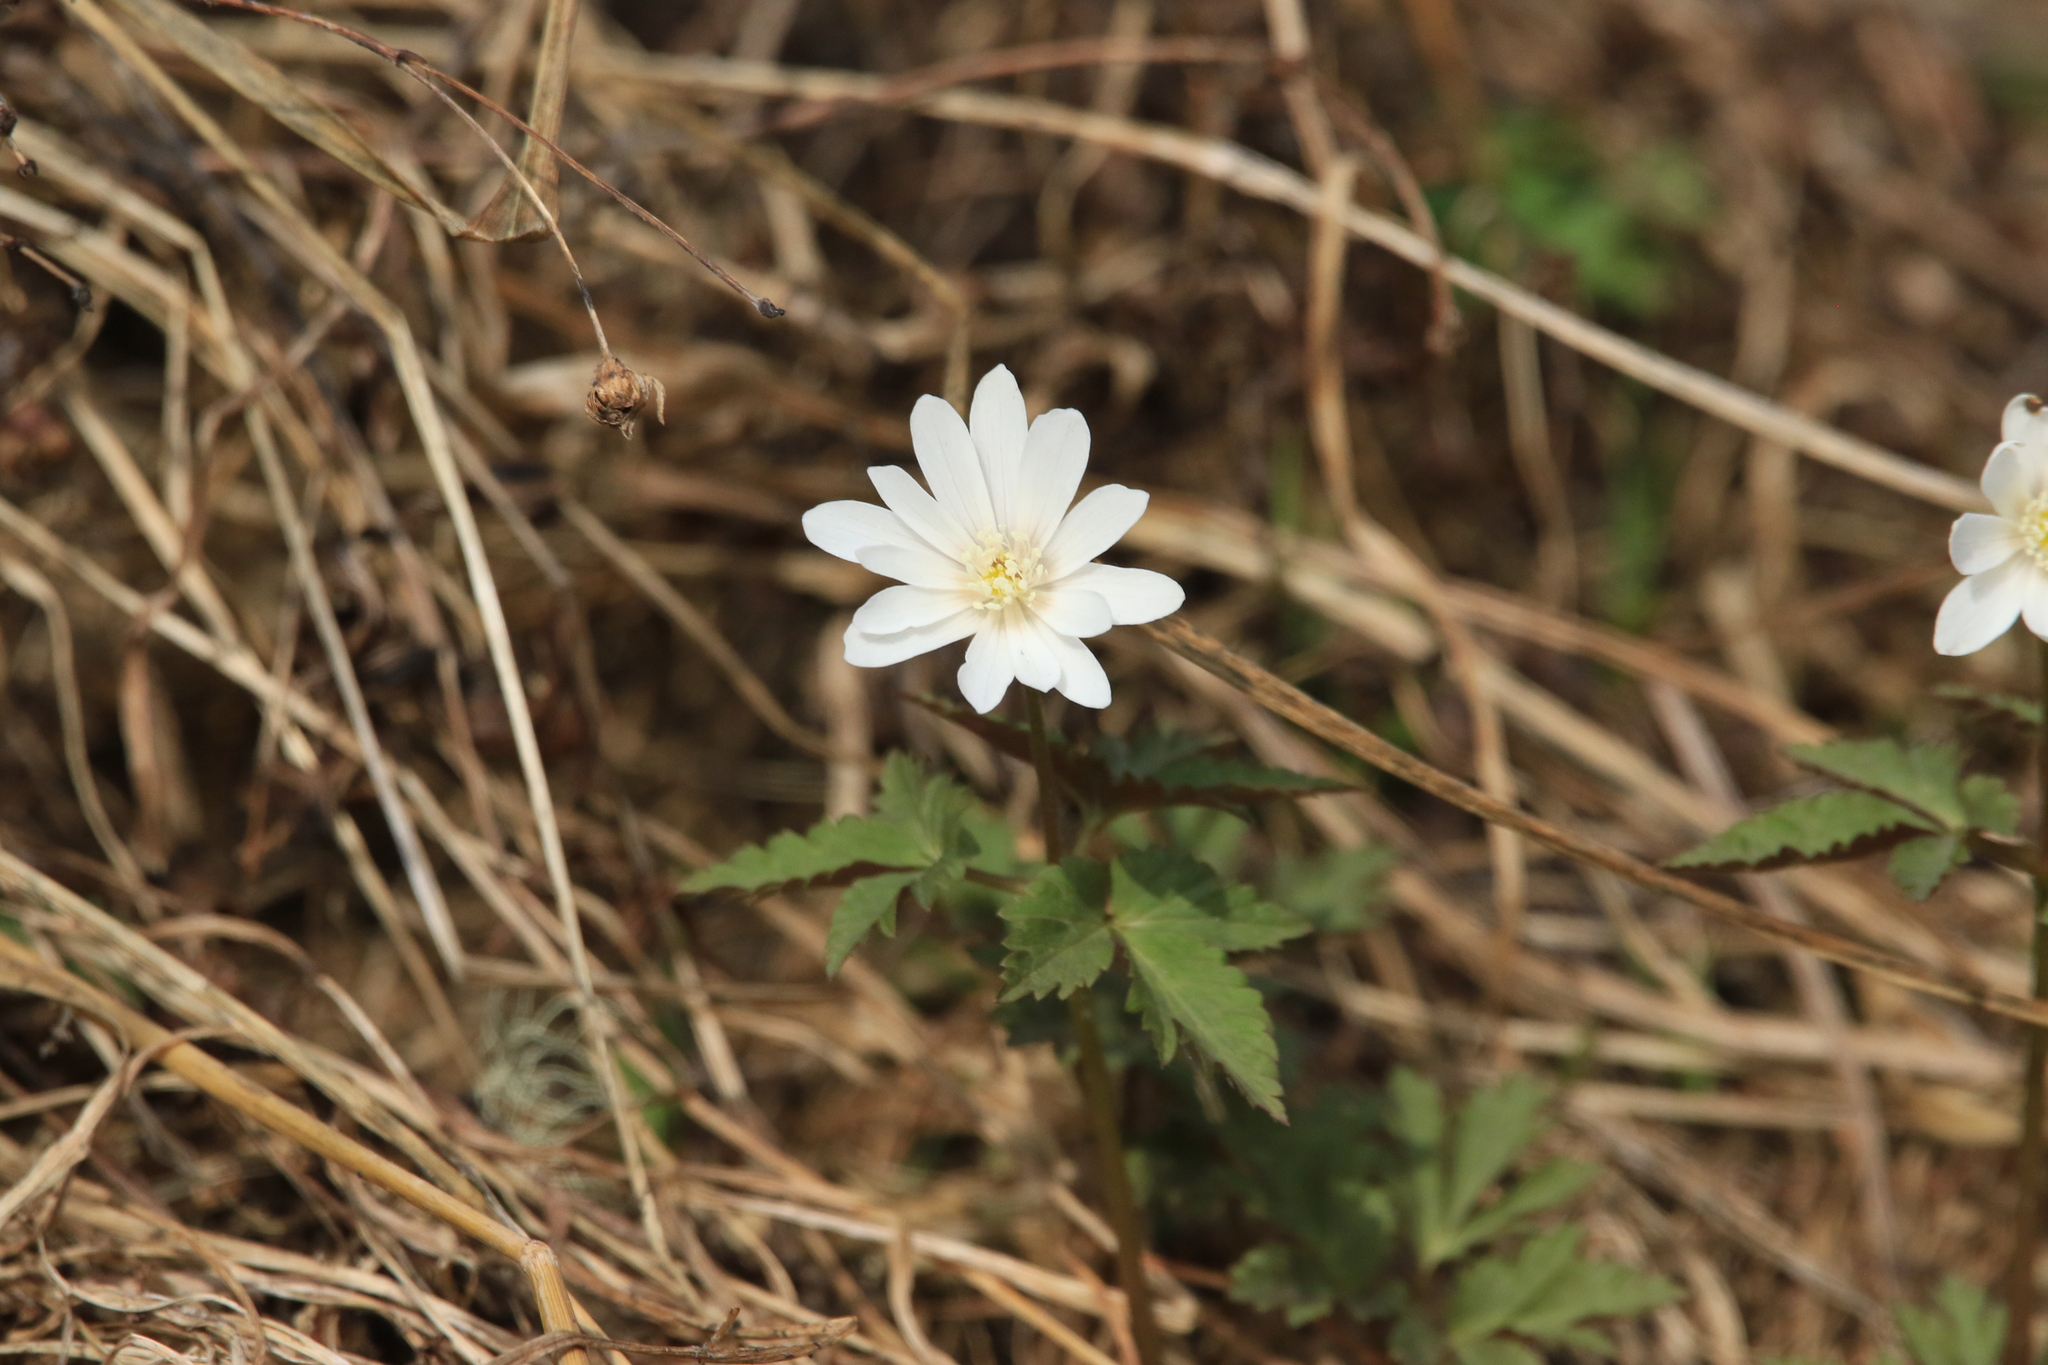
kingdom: Plantae
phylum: Tracheophyta
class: Magnoliopsida
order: Ranunculales
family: Ranunculaceae
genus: Anemone
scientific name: Anemone altaica
